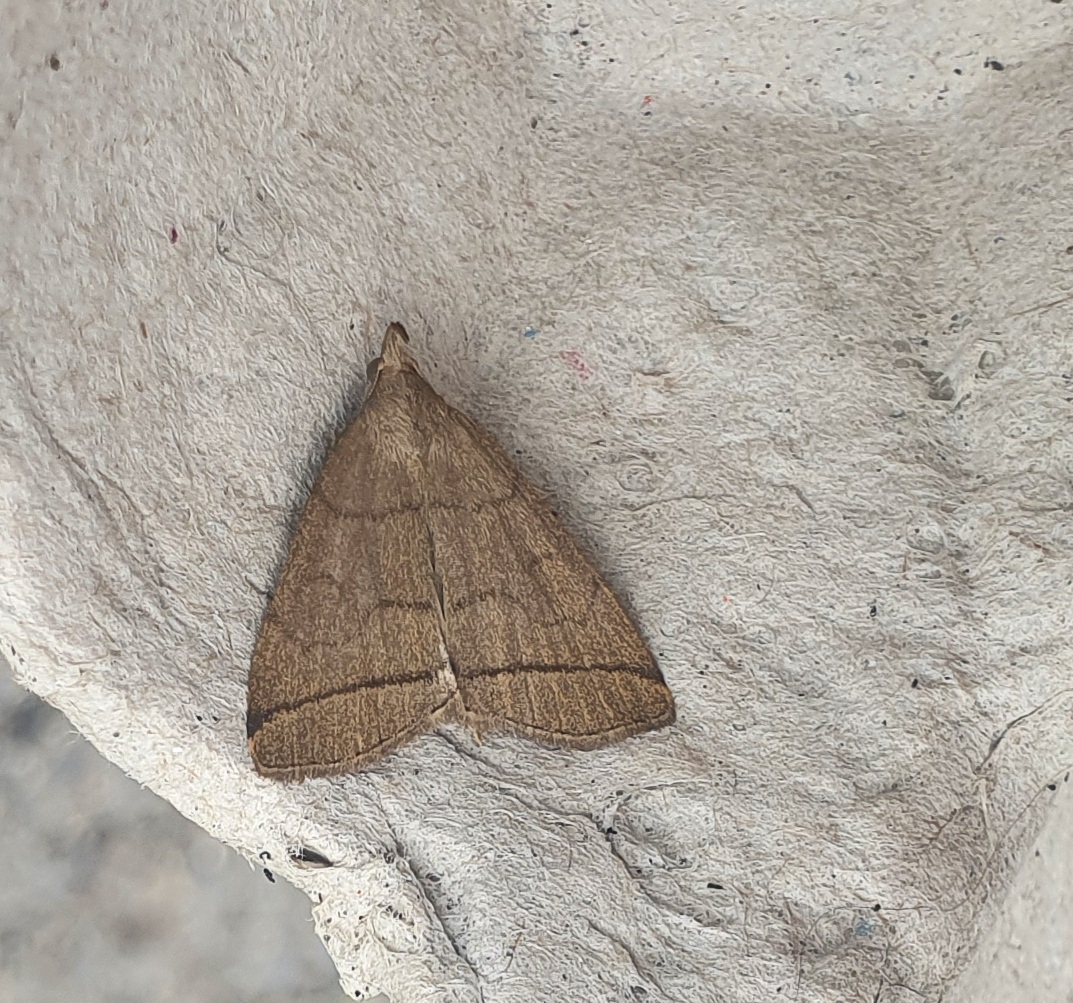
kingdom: Animalia
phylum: Arthropoda
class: Insecta
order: Lepidoptera
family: Erebidae
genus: Herminia
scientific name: Herminia tarsipennalis
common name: Fan-foot
